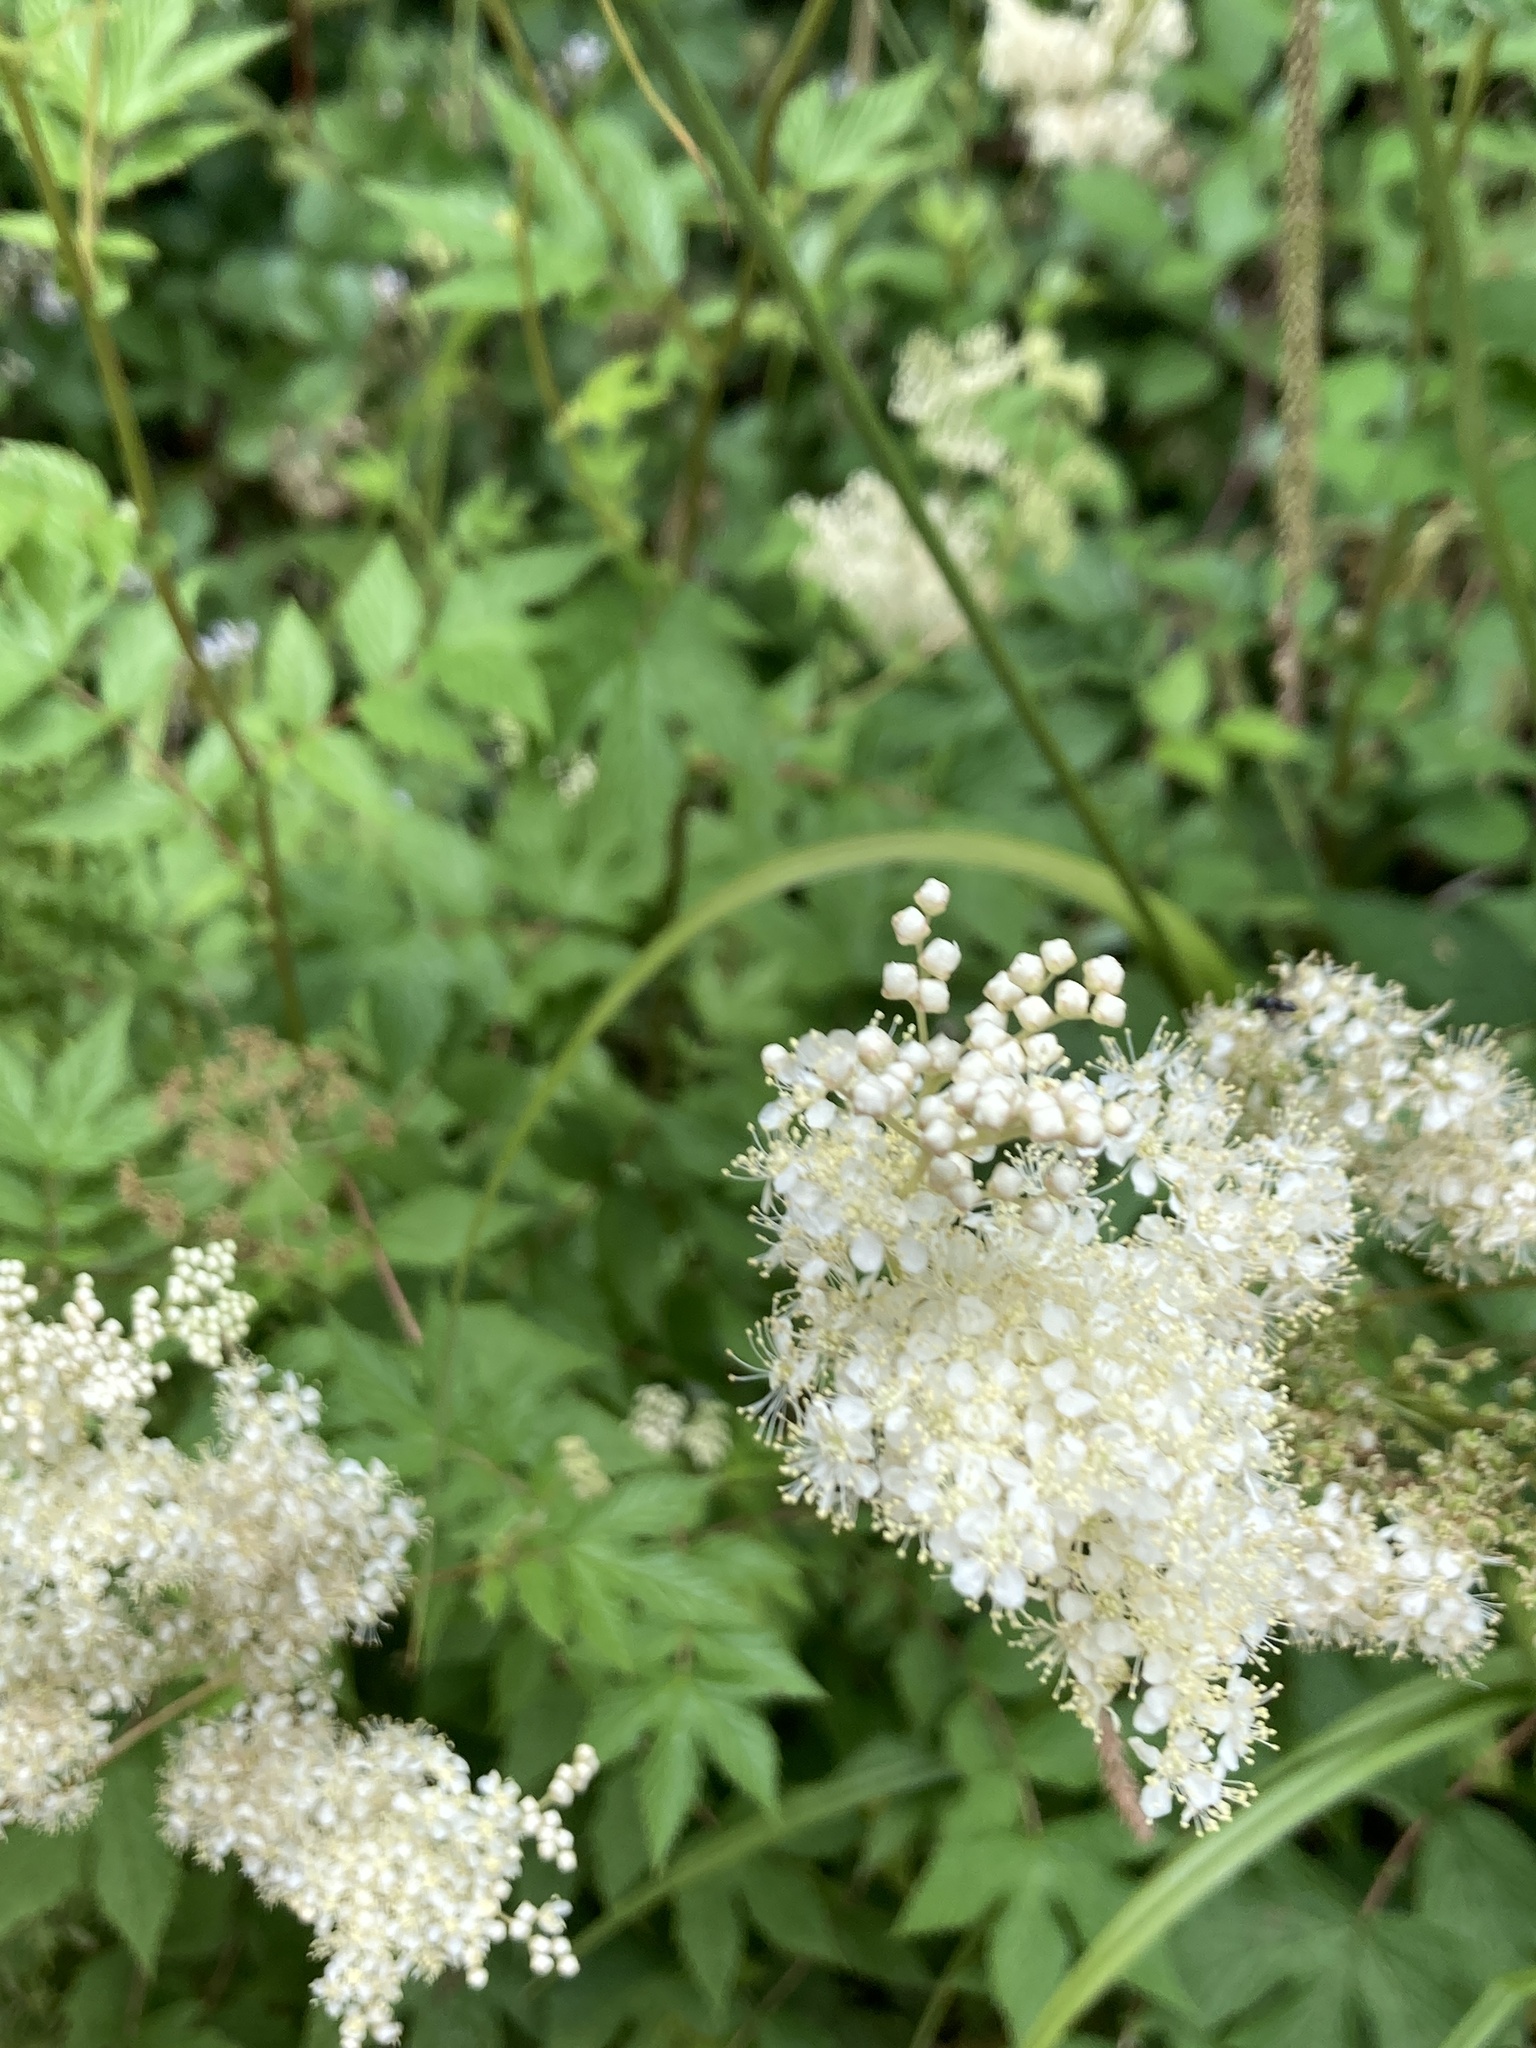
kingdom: Plantae
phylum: Tracheophyta
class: Magnoliopsida
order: Rosales
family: Rosaceae
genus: Filipendula
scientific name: Filipendula ulmaria
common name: Meadowsweet
